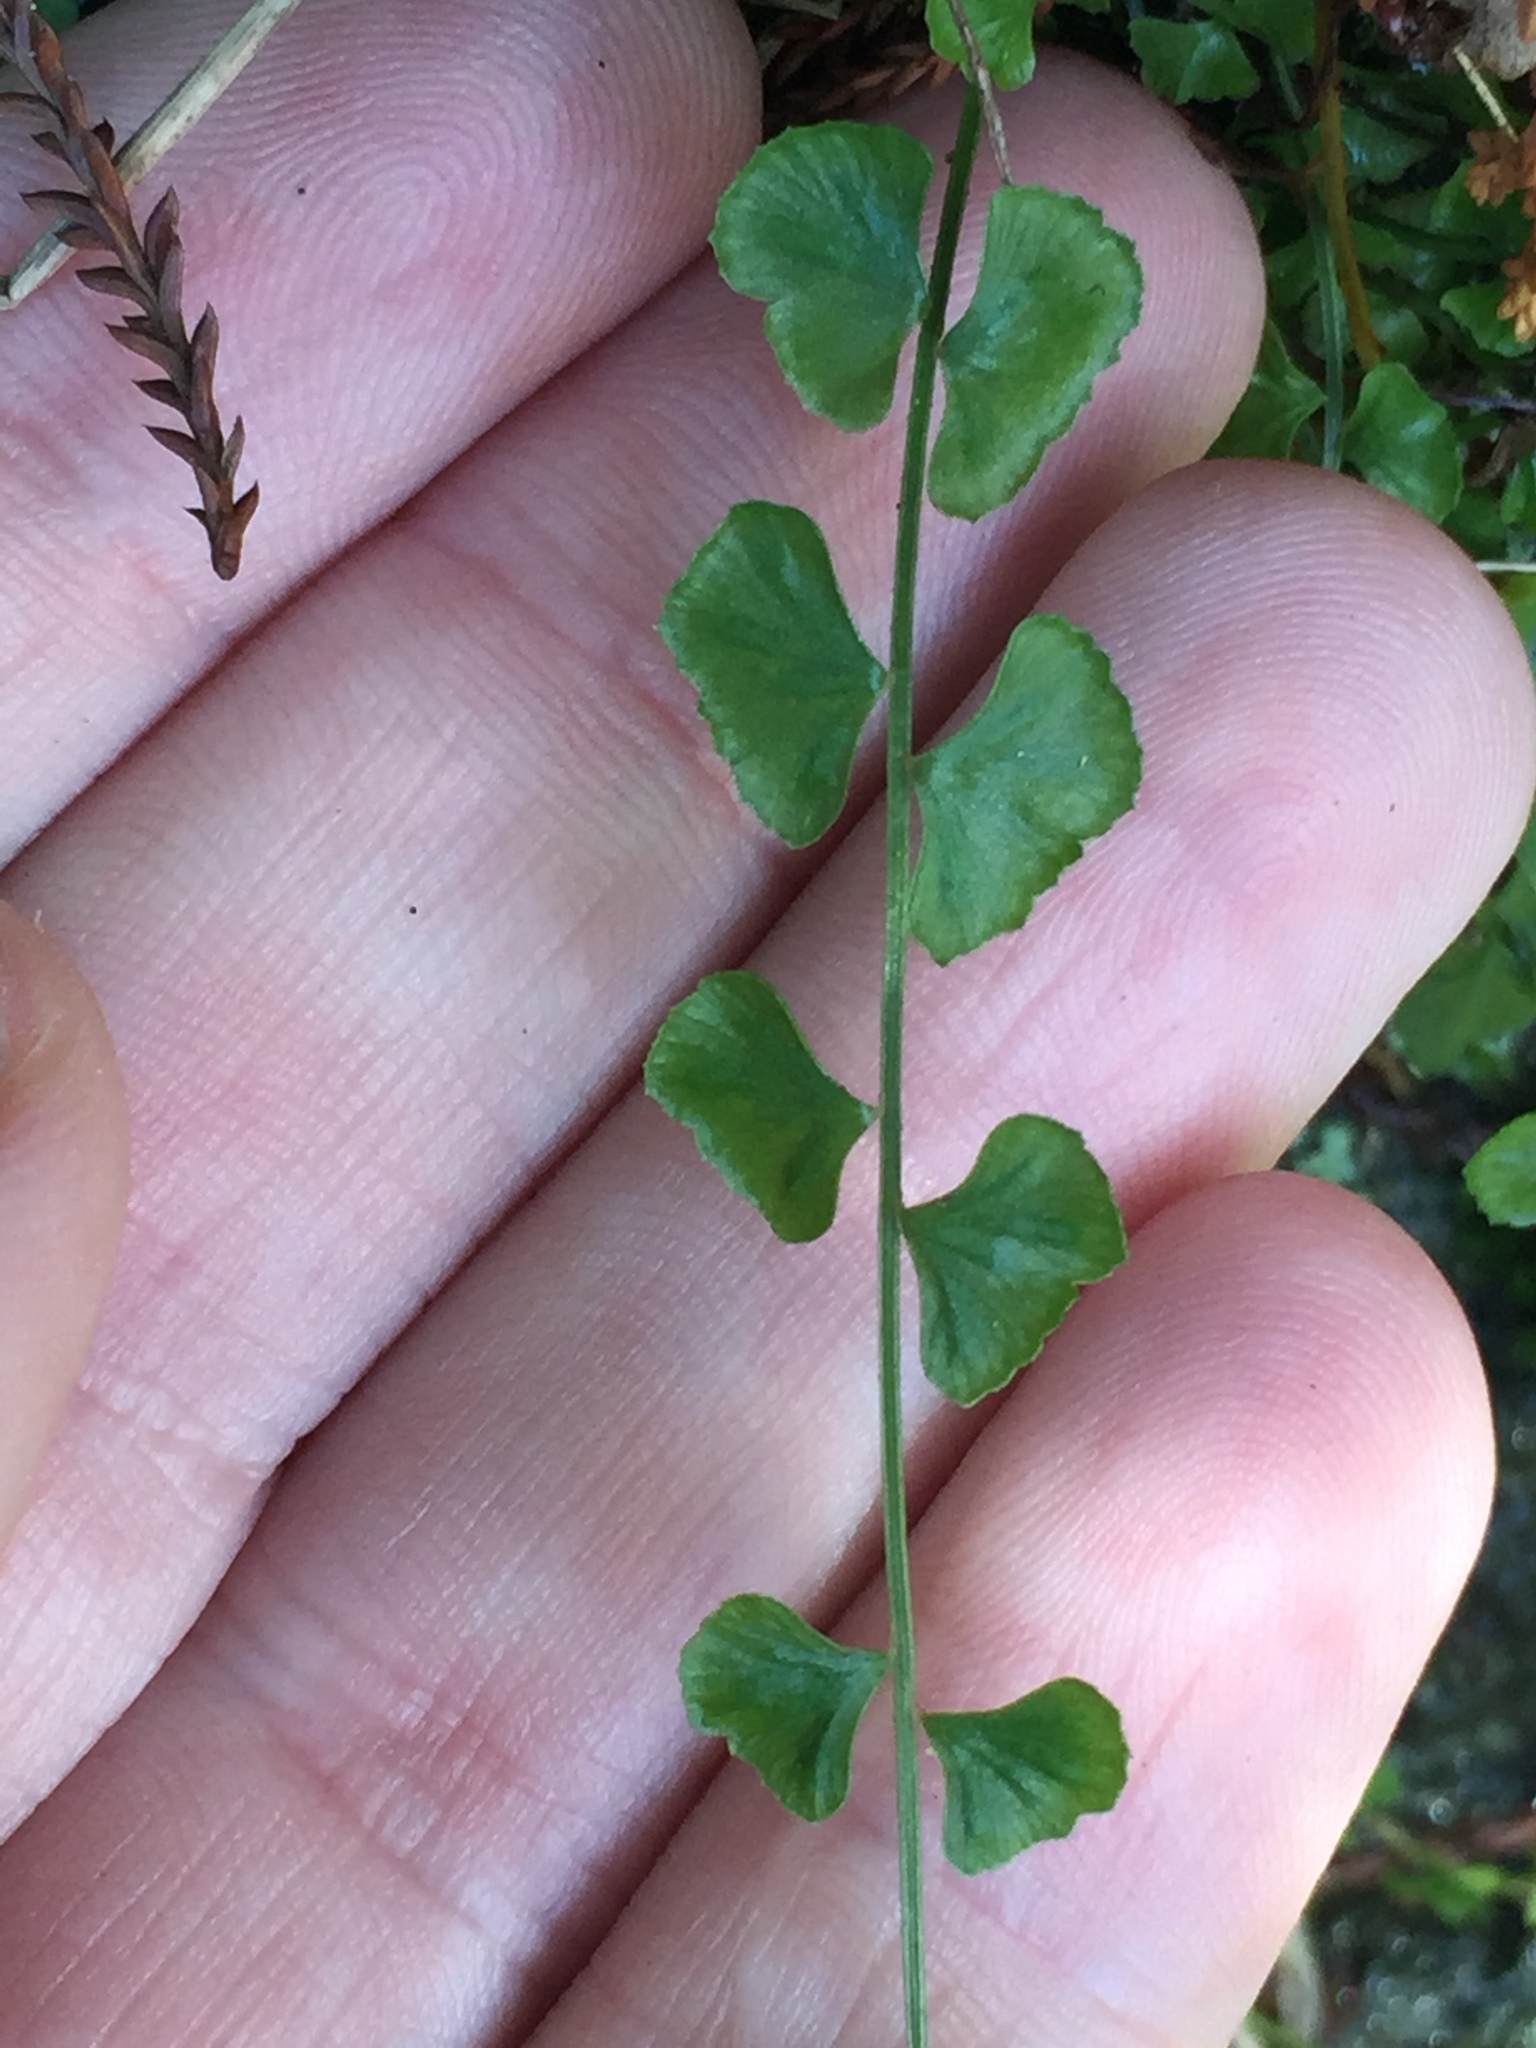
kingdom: Plantae
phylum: Tracheophyta
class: Polypodiopsida
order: Polypodiales
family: Aspleniaceae
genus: Asplenium
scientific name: Asplenium flabellifolium
